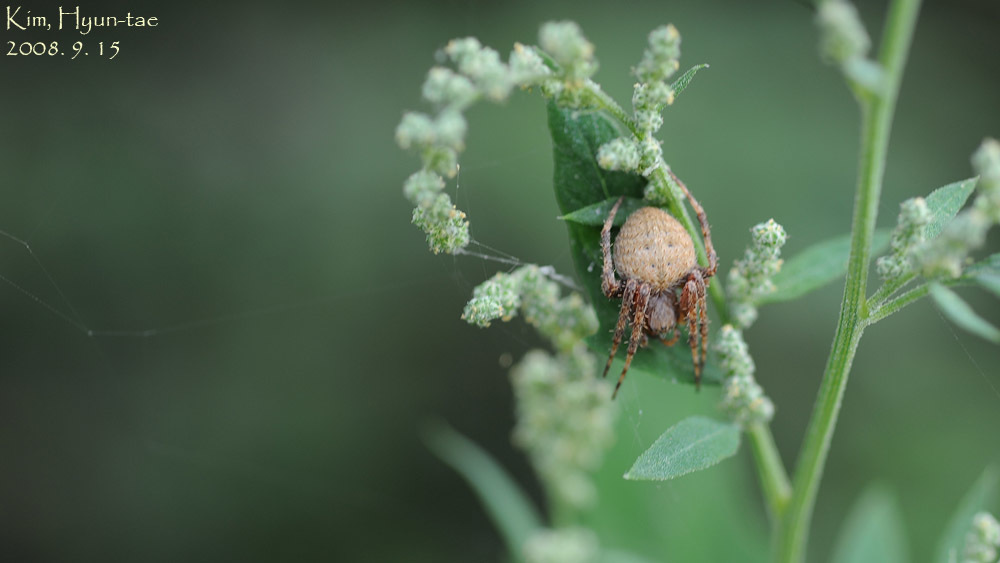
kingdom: Animalia
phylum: Arthropoda
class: Arachnida
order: Araneae
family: Araneidae
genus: Neoscona
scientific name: Neoscona punctigera
